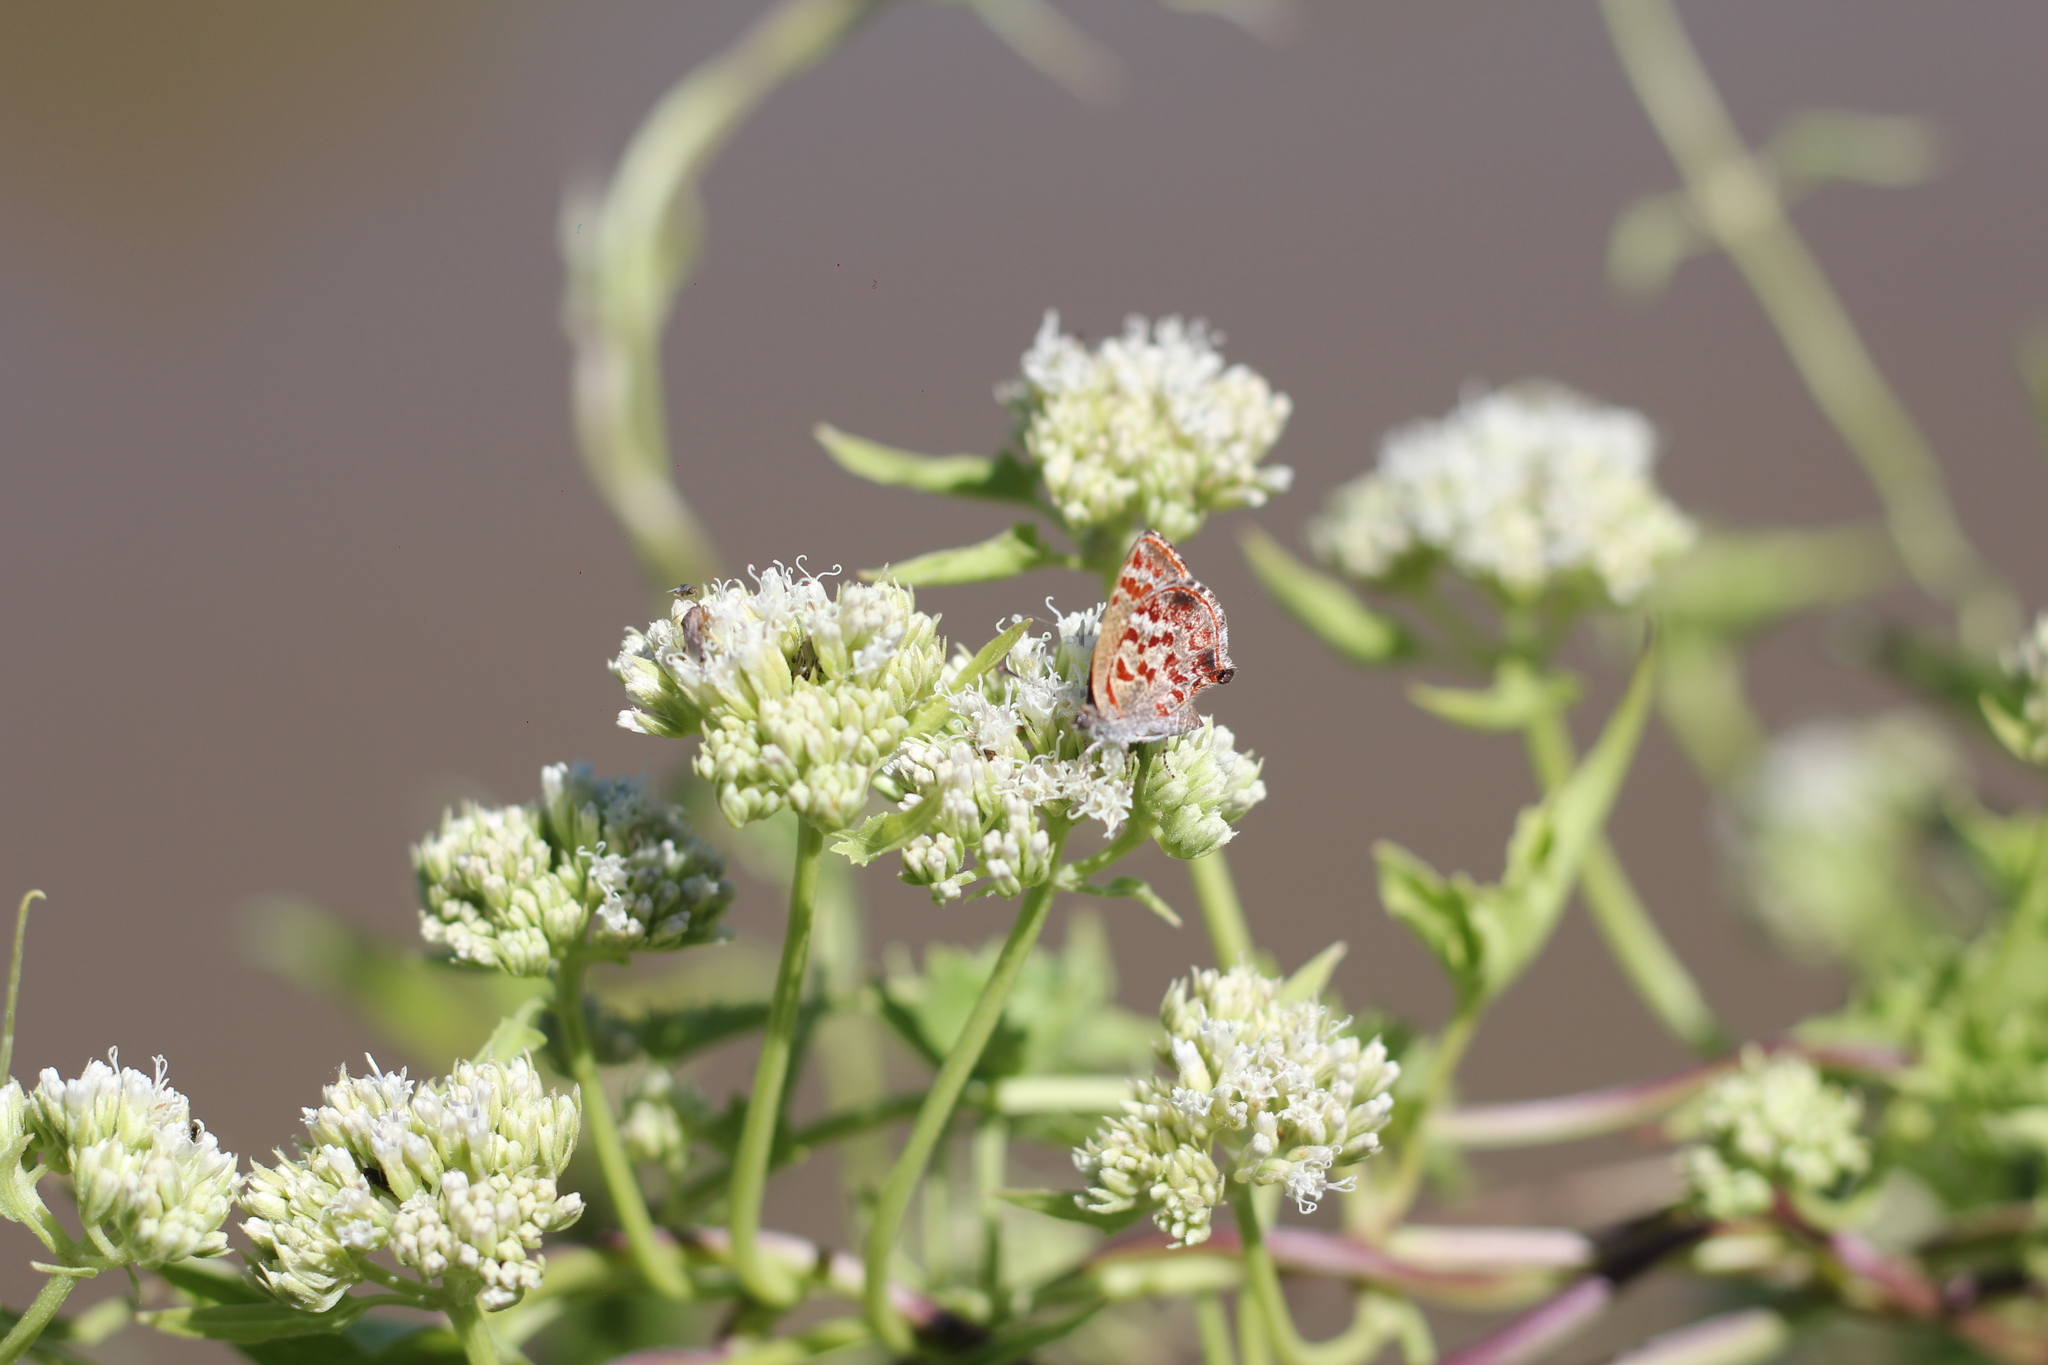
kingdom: Animalia
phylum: Arthropoda
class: Insecta
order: Lepidoptera
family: Lycaenidae
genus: Ministrymon
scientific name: Ministrymon
